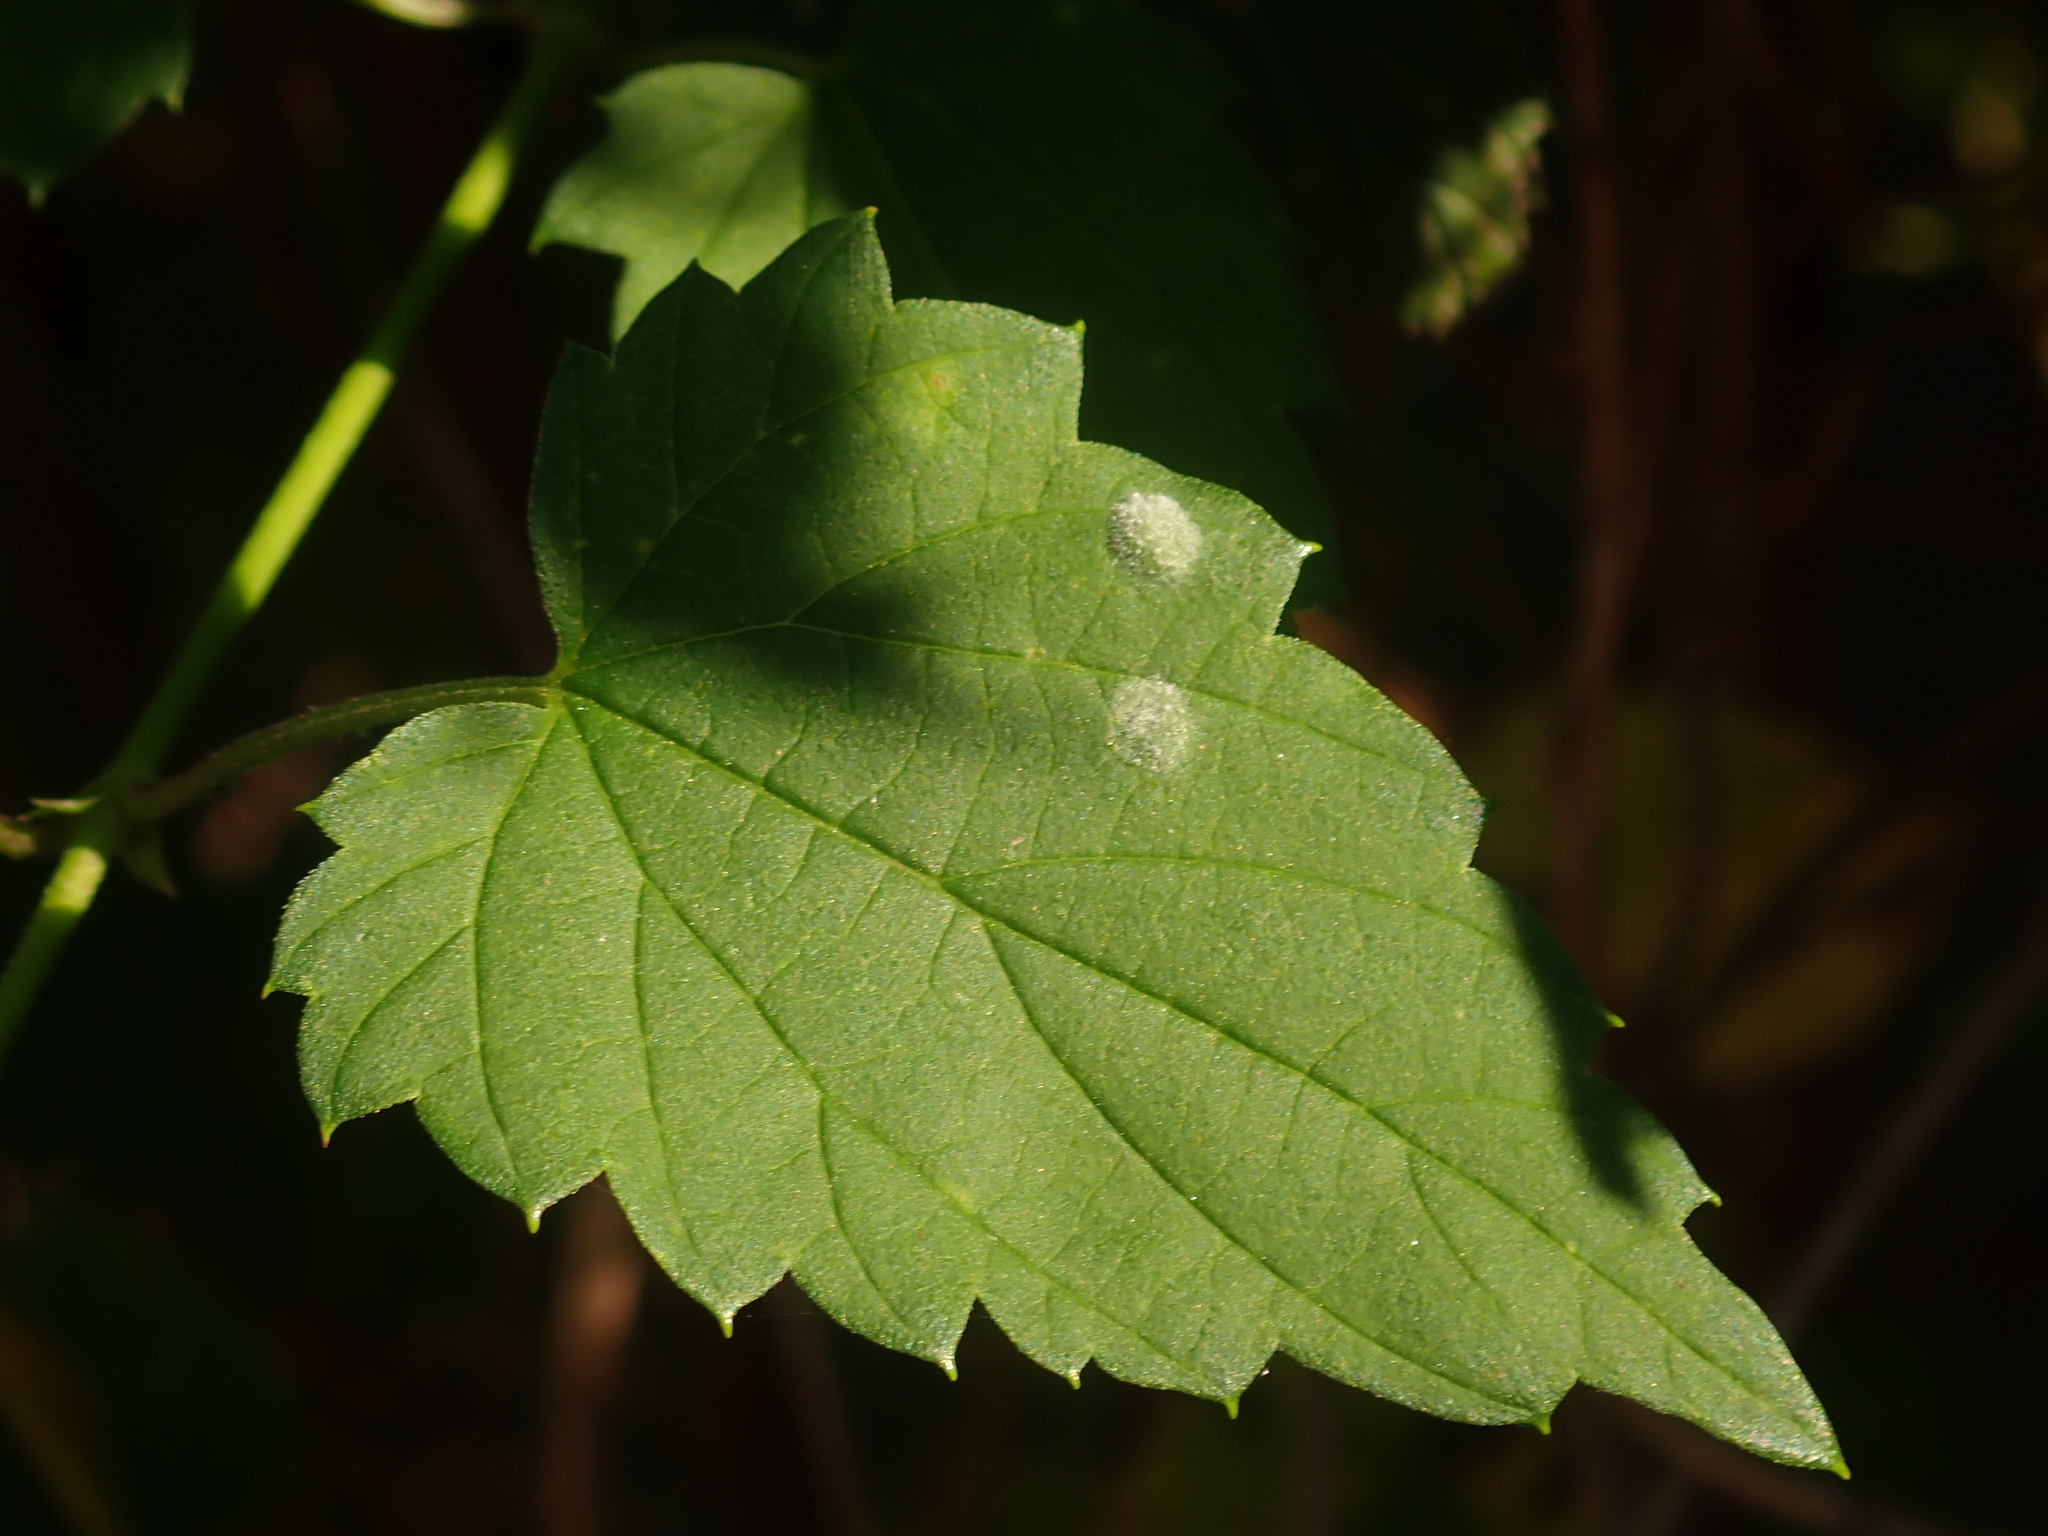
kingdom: Fungi
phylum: Ascomycota
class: Leotiomycetes
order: Helotiales
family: Erysiphaceae
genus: Podosphaera
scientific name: Podosphaera macularis
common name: Powdery mildew
